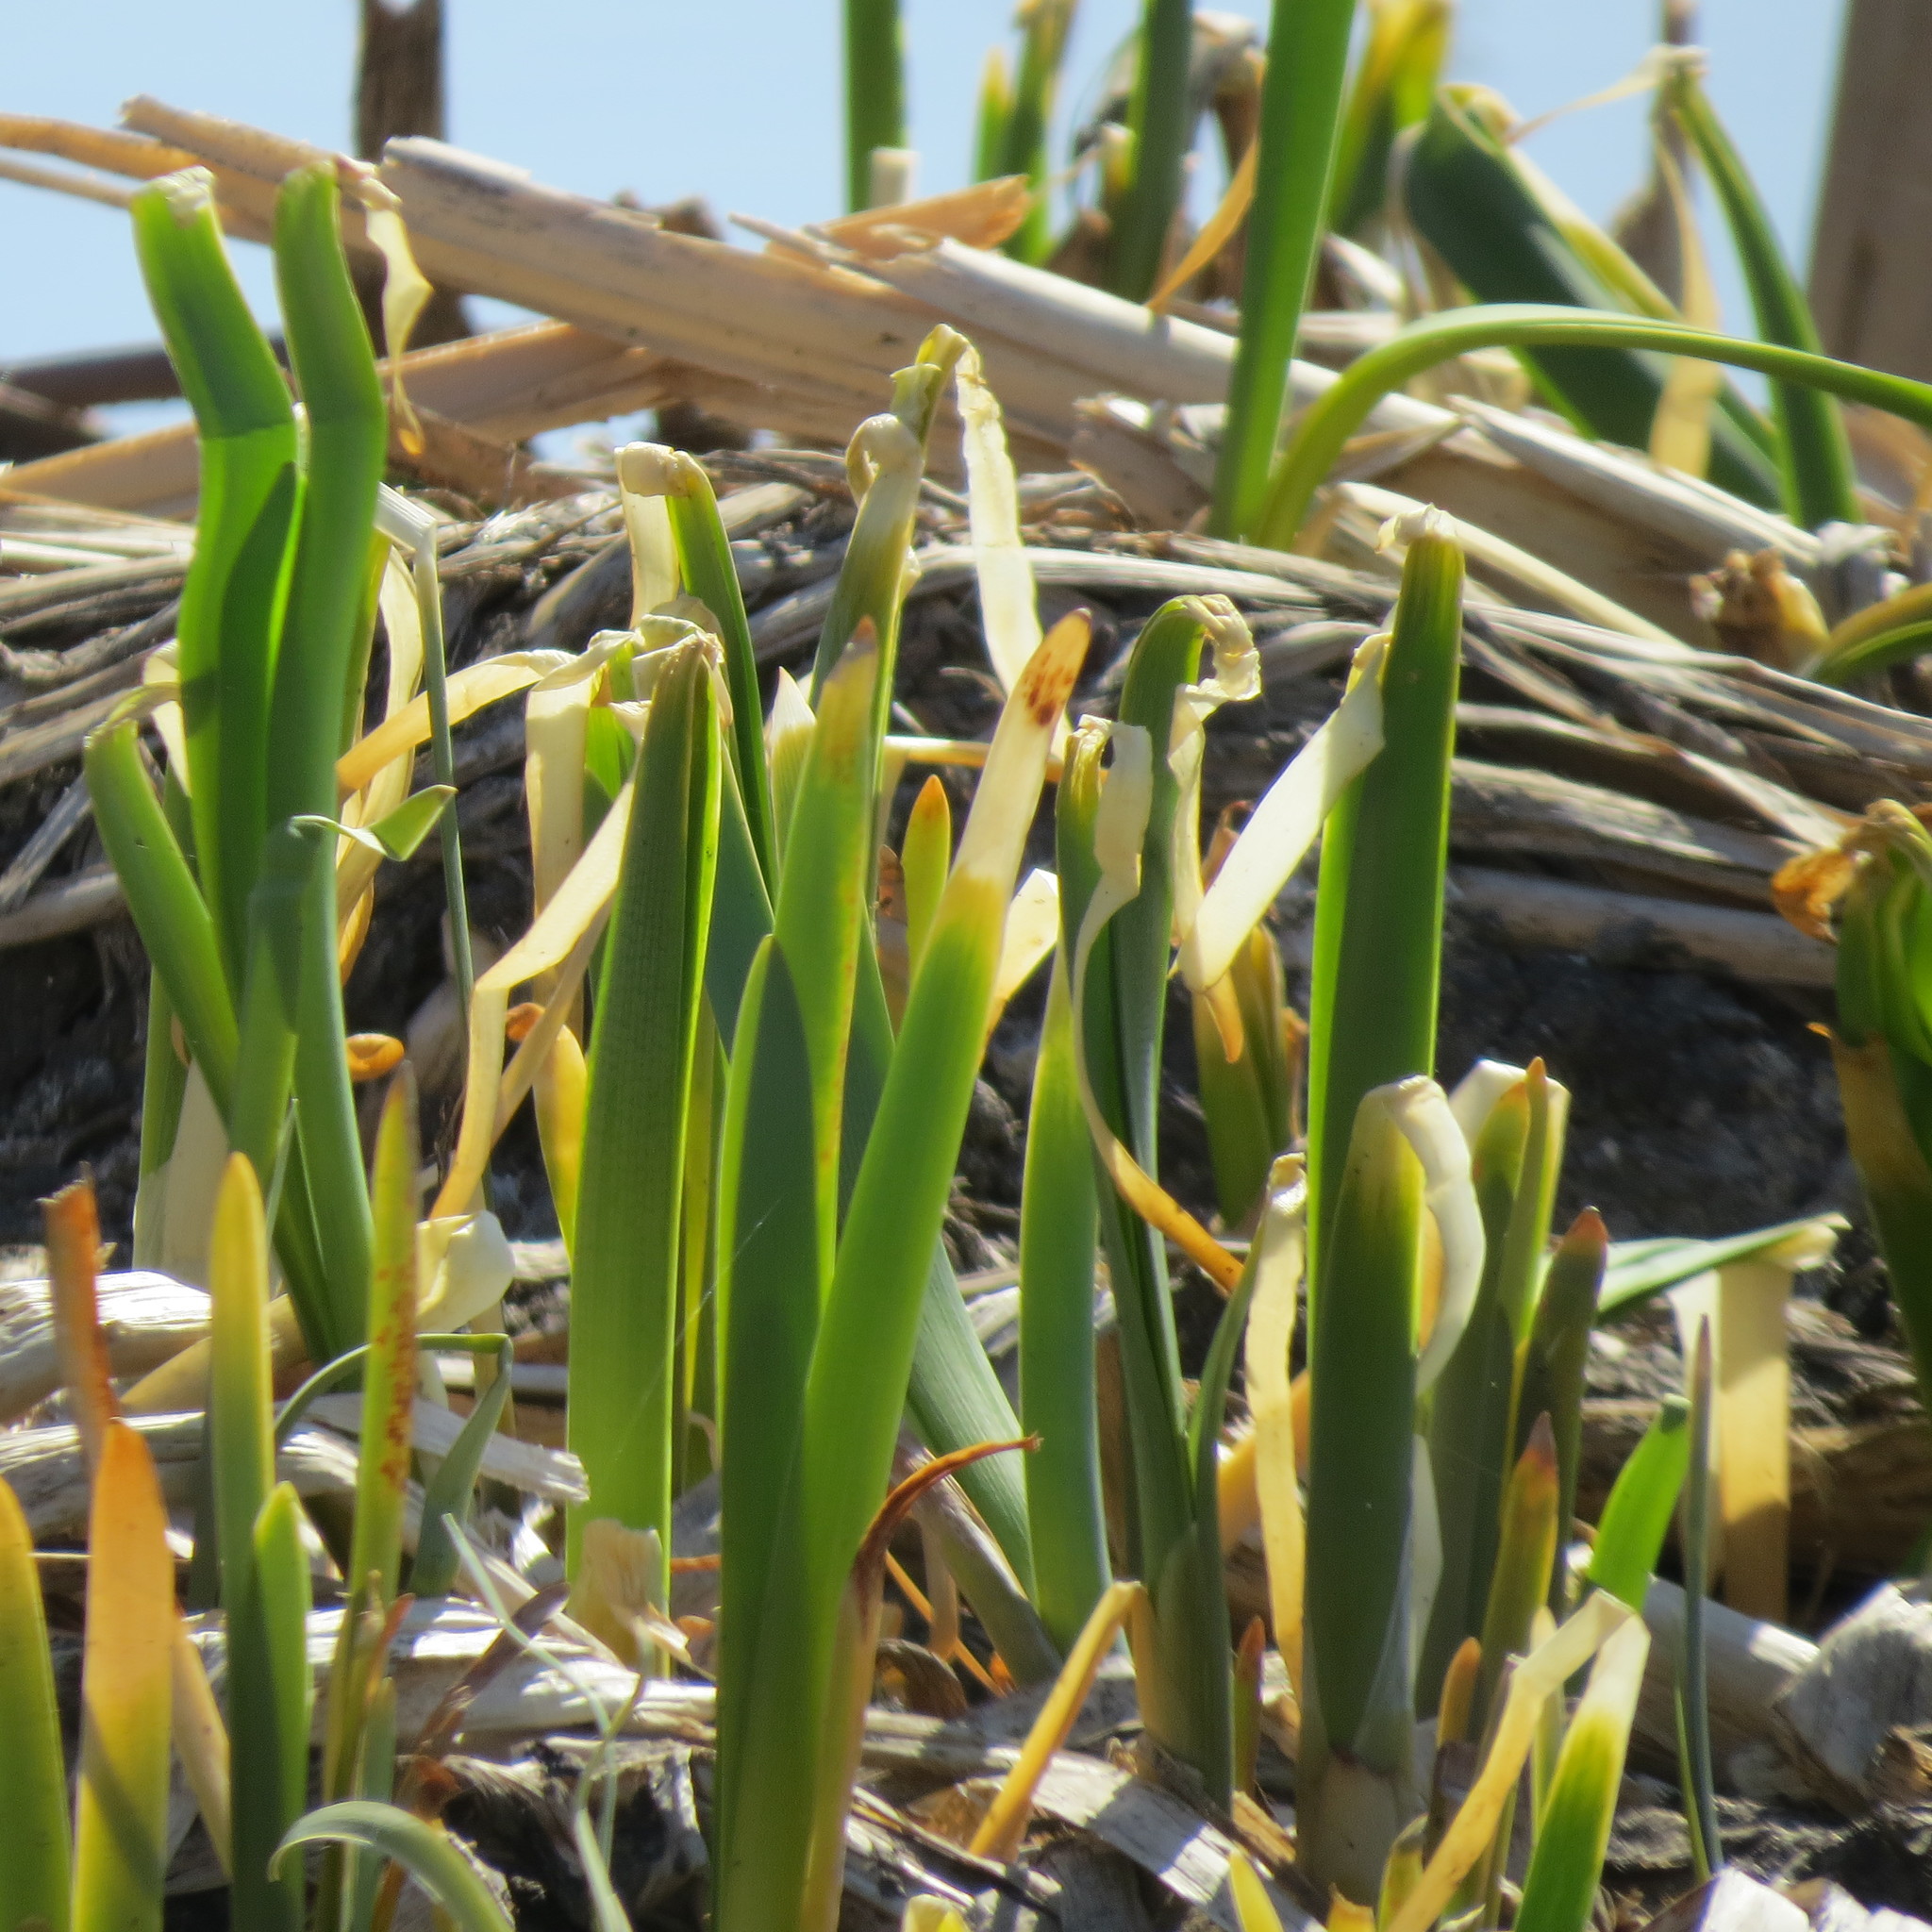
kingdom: Plantae
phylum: Tracheophyta
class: Liliopsida
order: Poales
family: Typhaceae
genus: Typha
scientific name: Typha latifolia
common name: Broadleaf cattail
